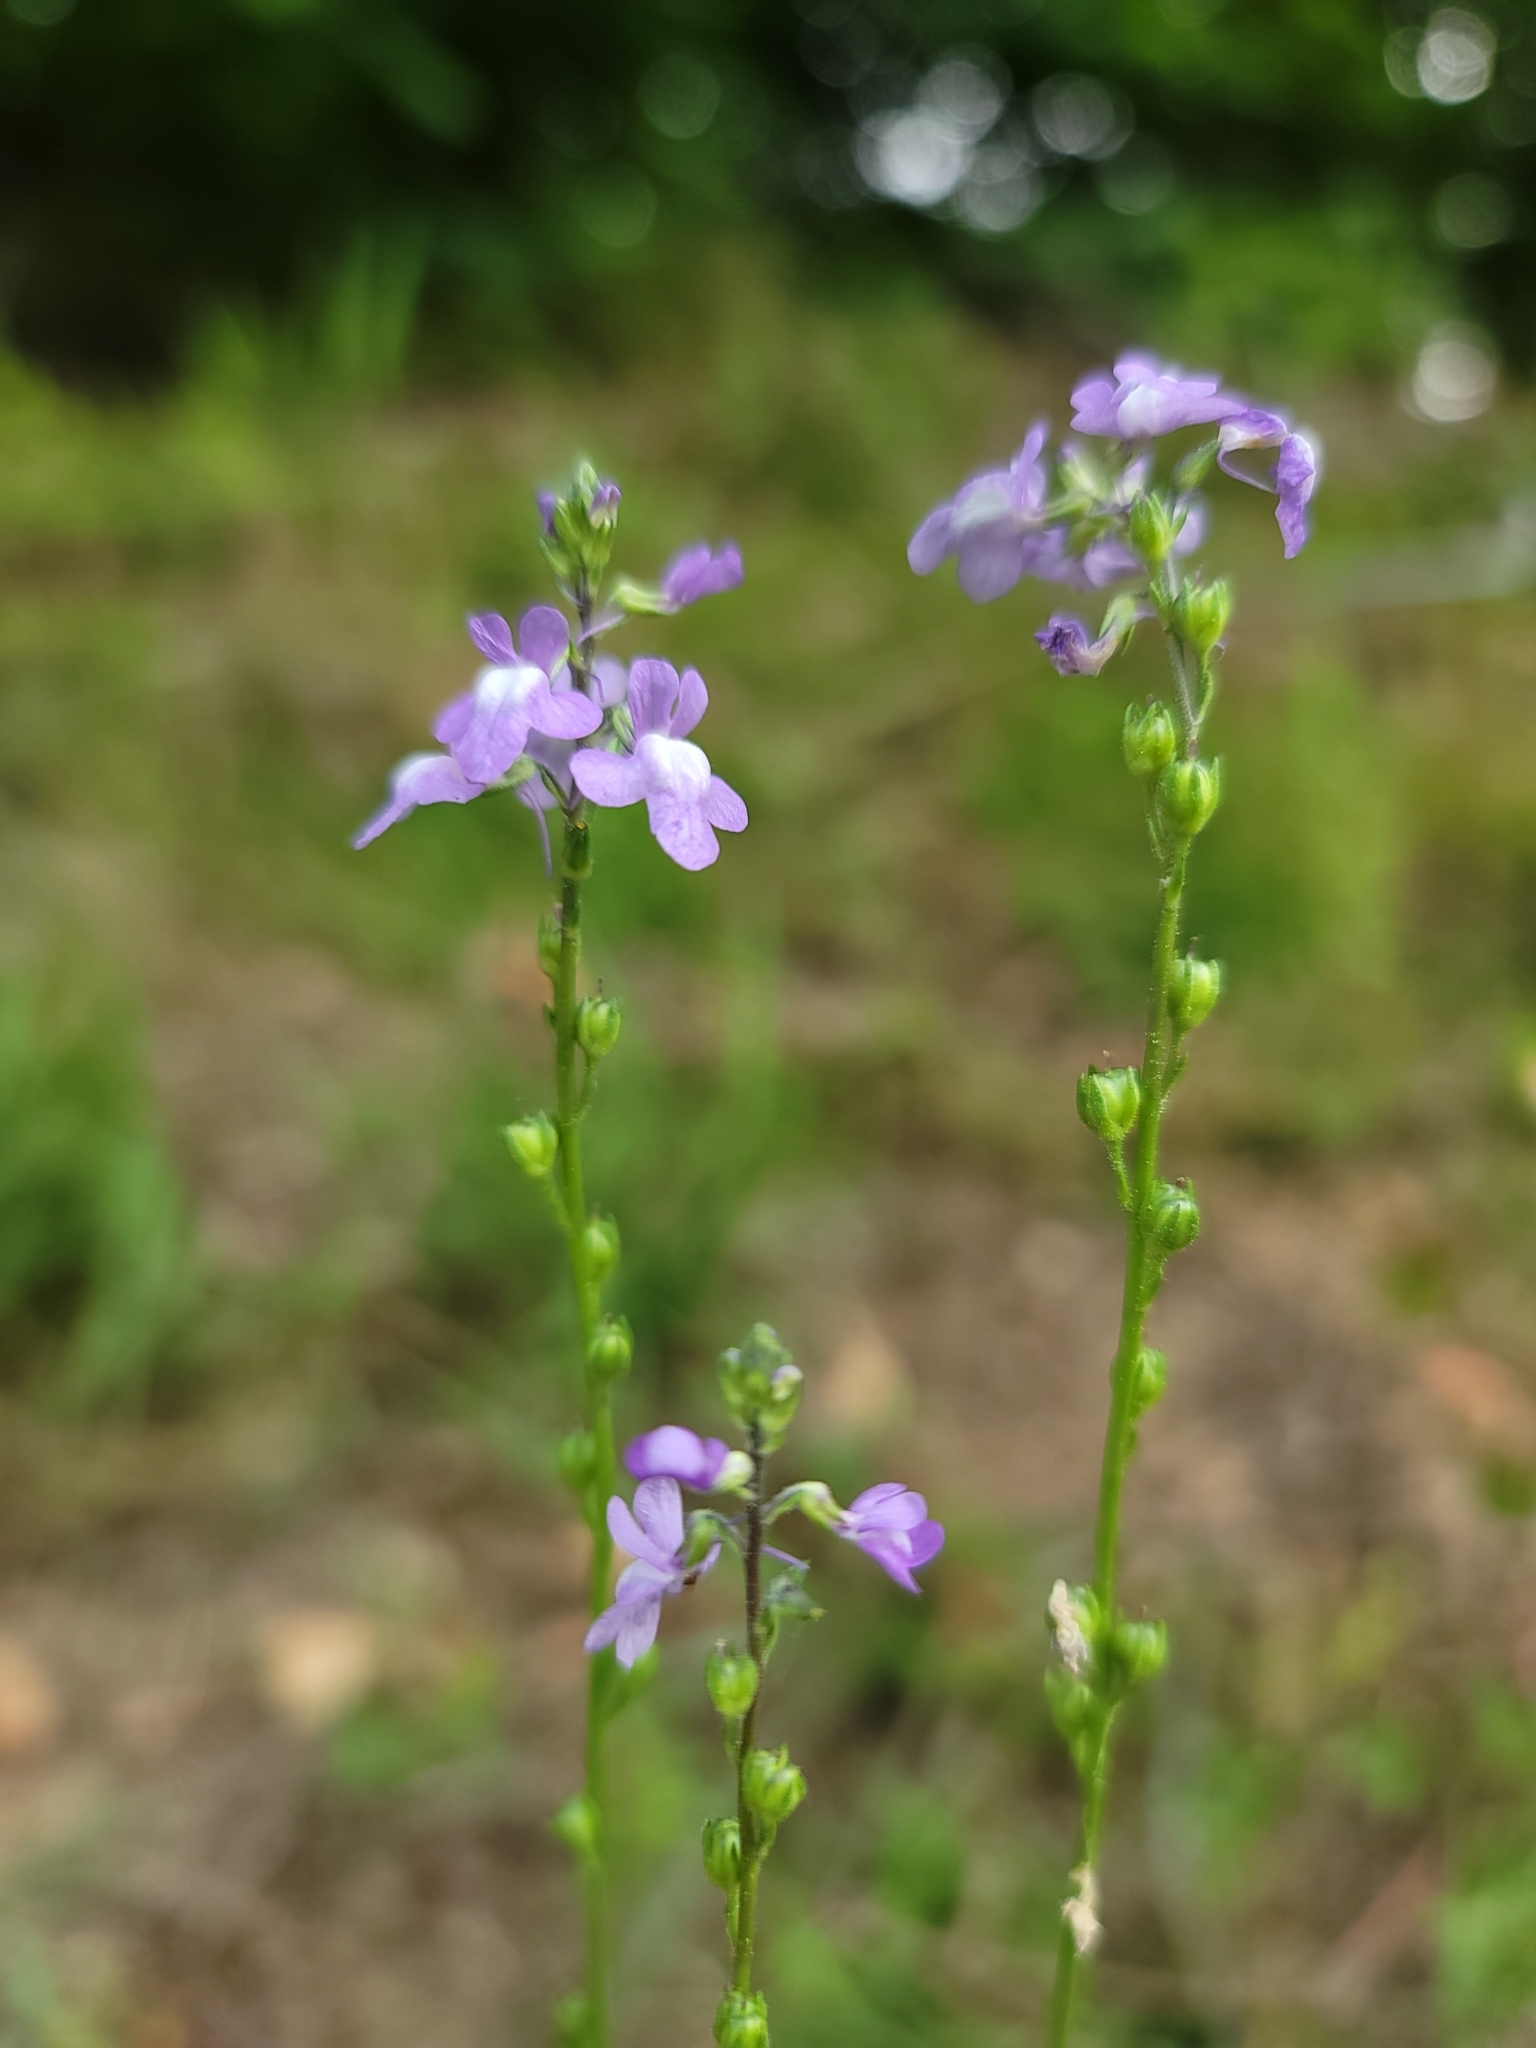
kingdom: Plantae
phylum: Tracheophyta
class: Magnoliopsida
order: Lamiales
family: Plantaginaceae
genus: Nuttallanthus
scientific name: Nuttallanthus canadensis
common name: Blue toadflax
